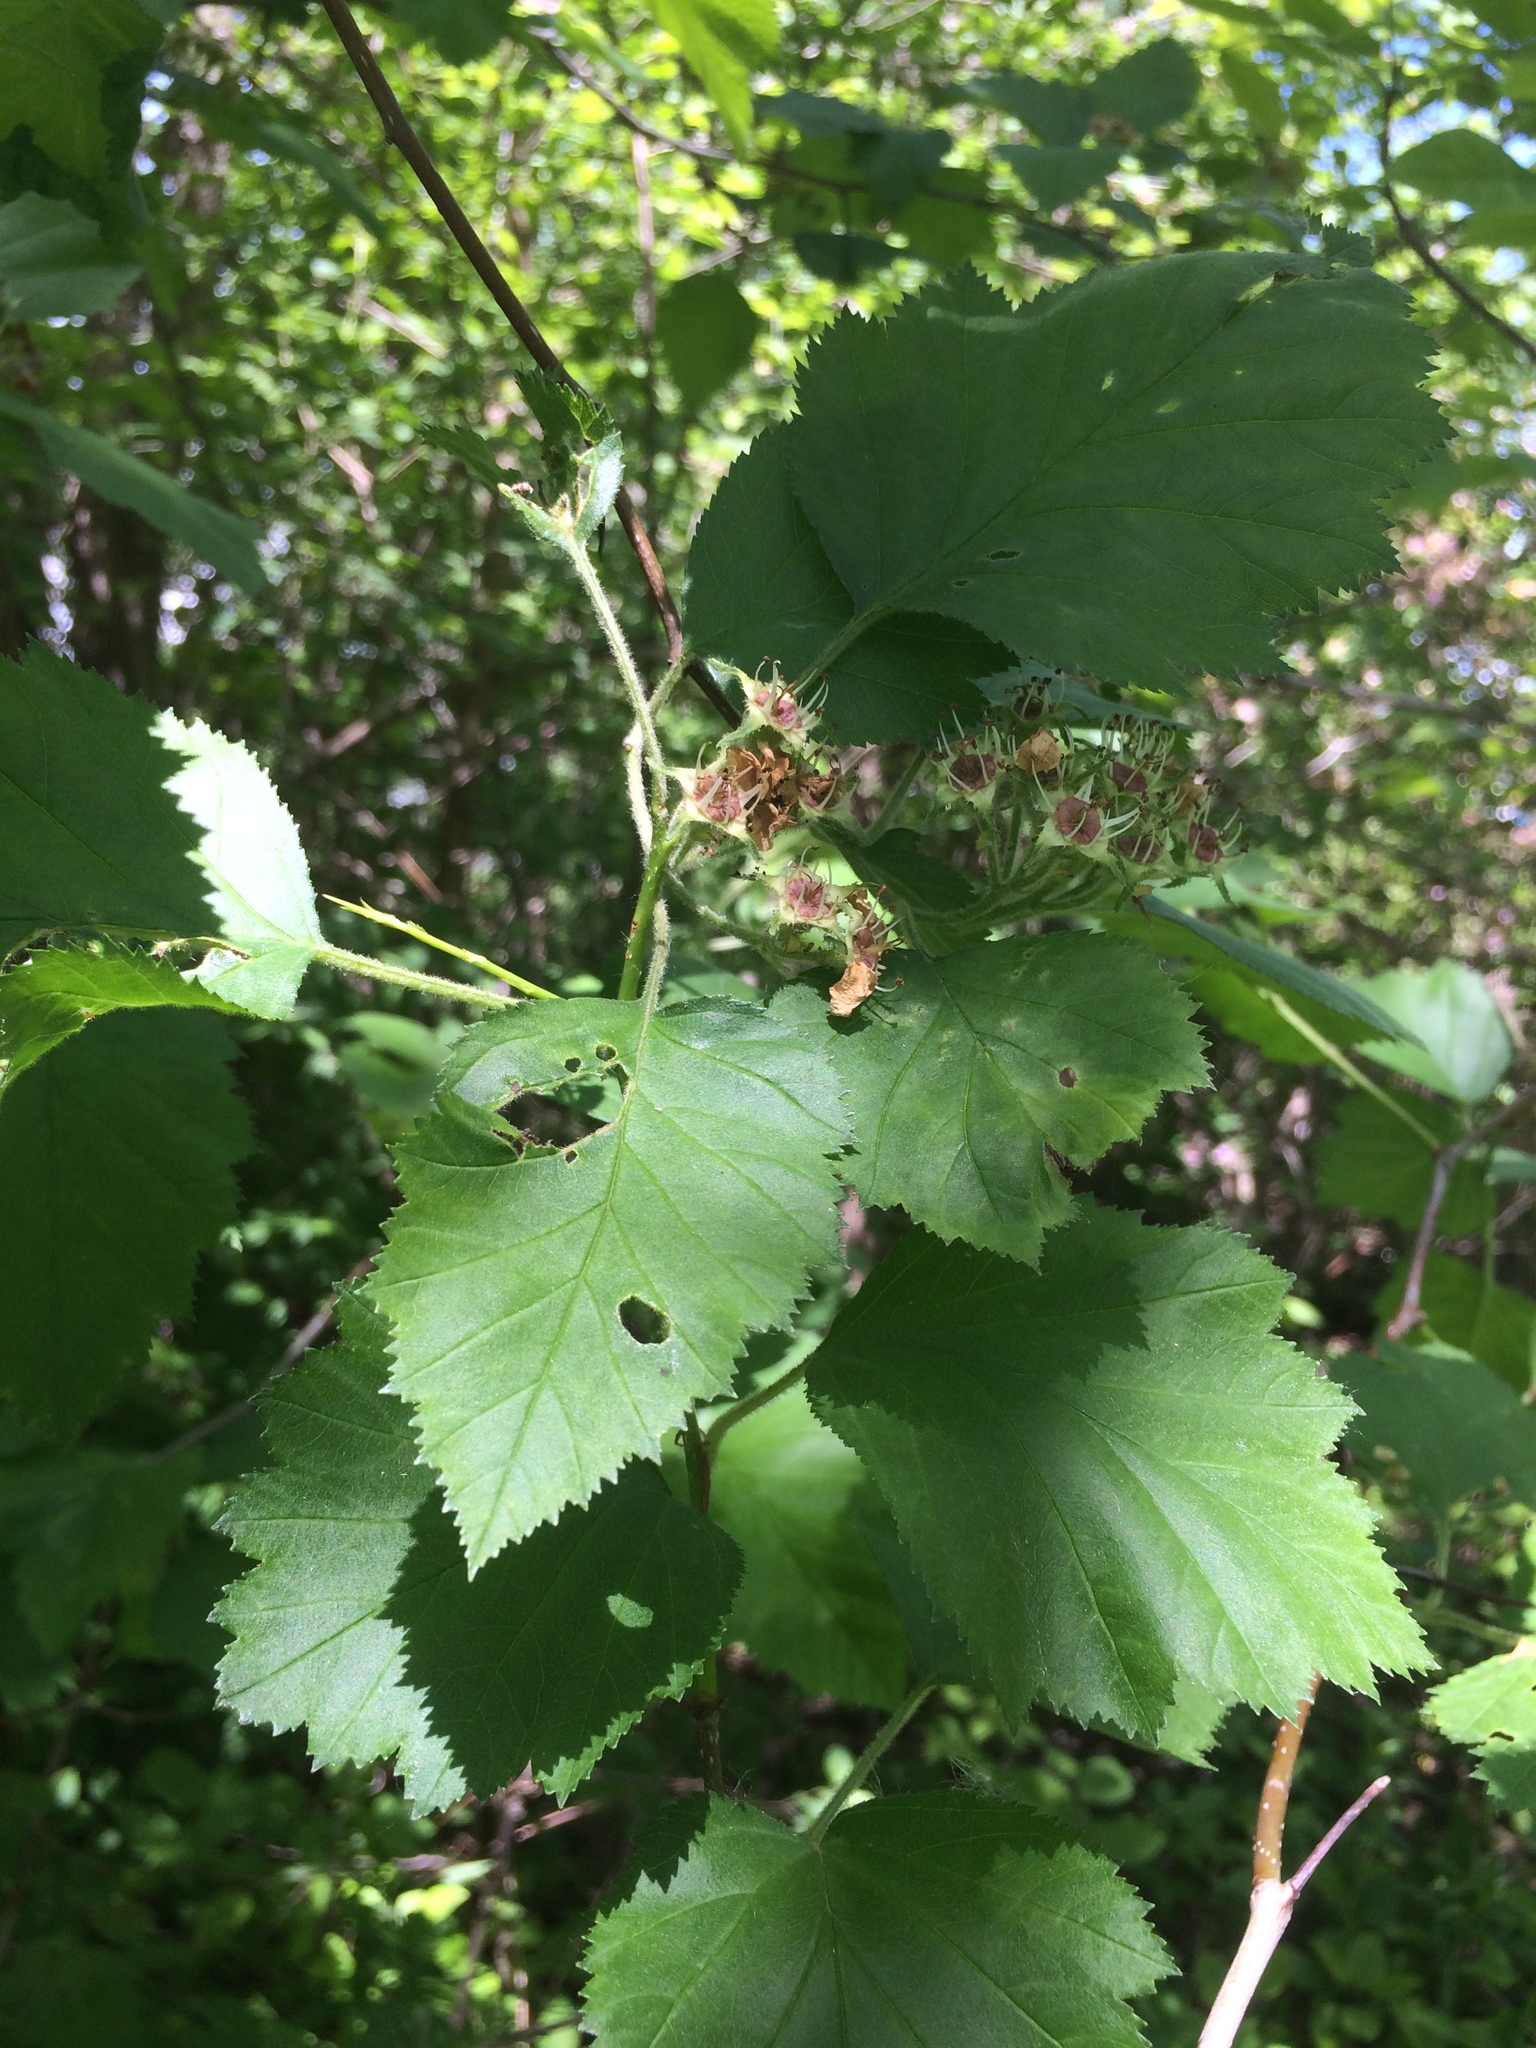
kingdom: Plantae
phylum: Tracheophyta
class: Magnoliopsida
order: Rosales
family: Rosaceae
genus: Crataegus
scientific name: Crataegus submollis
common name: Hairy cockspurthorn
